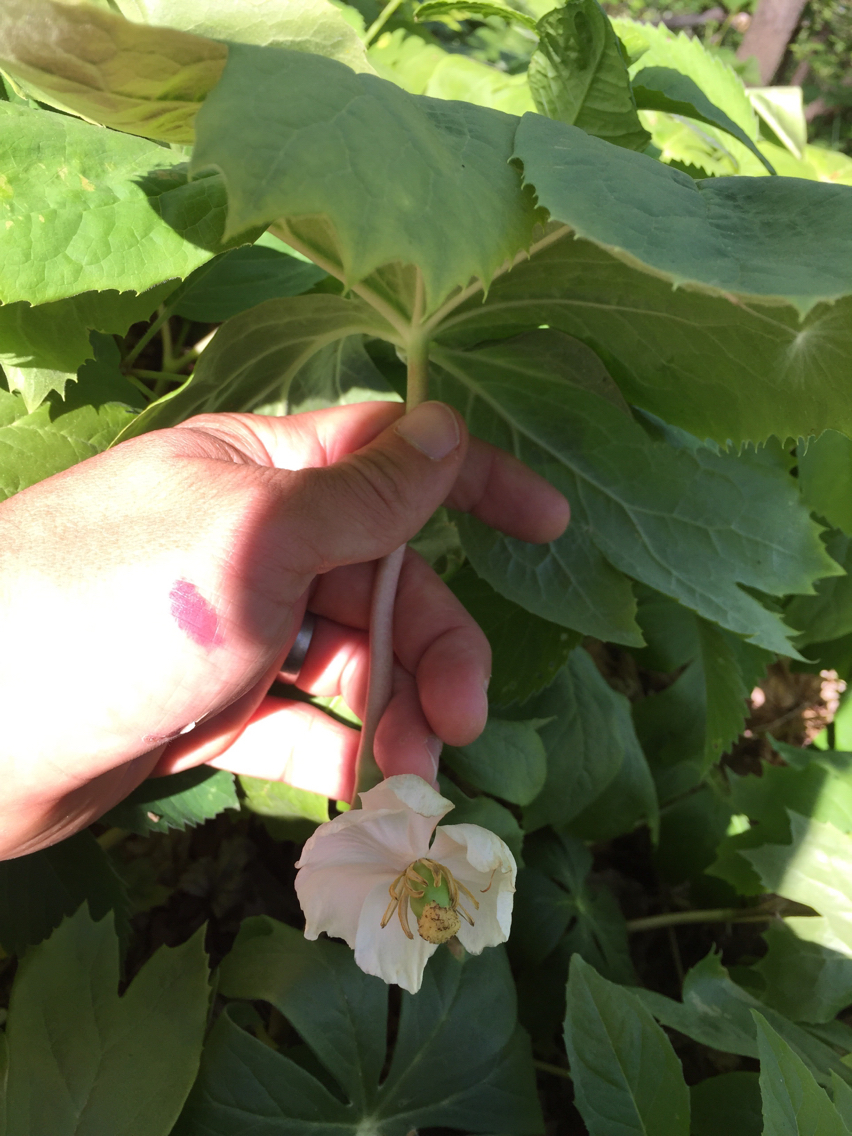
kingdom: Plantae
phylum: Tracheophyta
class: Magnoliopsida
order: Ranunculales
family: Berberidaceae
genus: Podophyllum
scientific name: Podophyllum peltatum
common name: Wild mandrake
